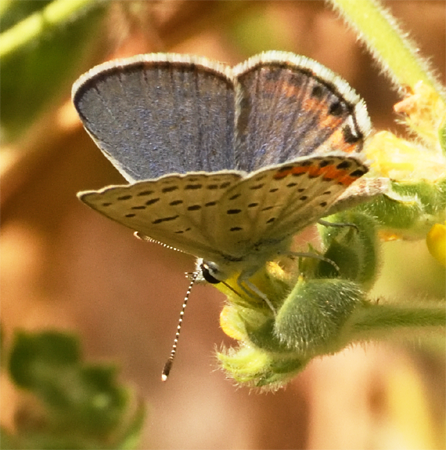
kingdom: Animalia
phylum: Arthropoda
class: Insecta
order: Lepidoptera
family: Lycaenidae
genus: Icaricia
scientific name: Icaricia acmon
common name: Acmon blue
